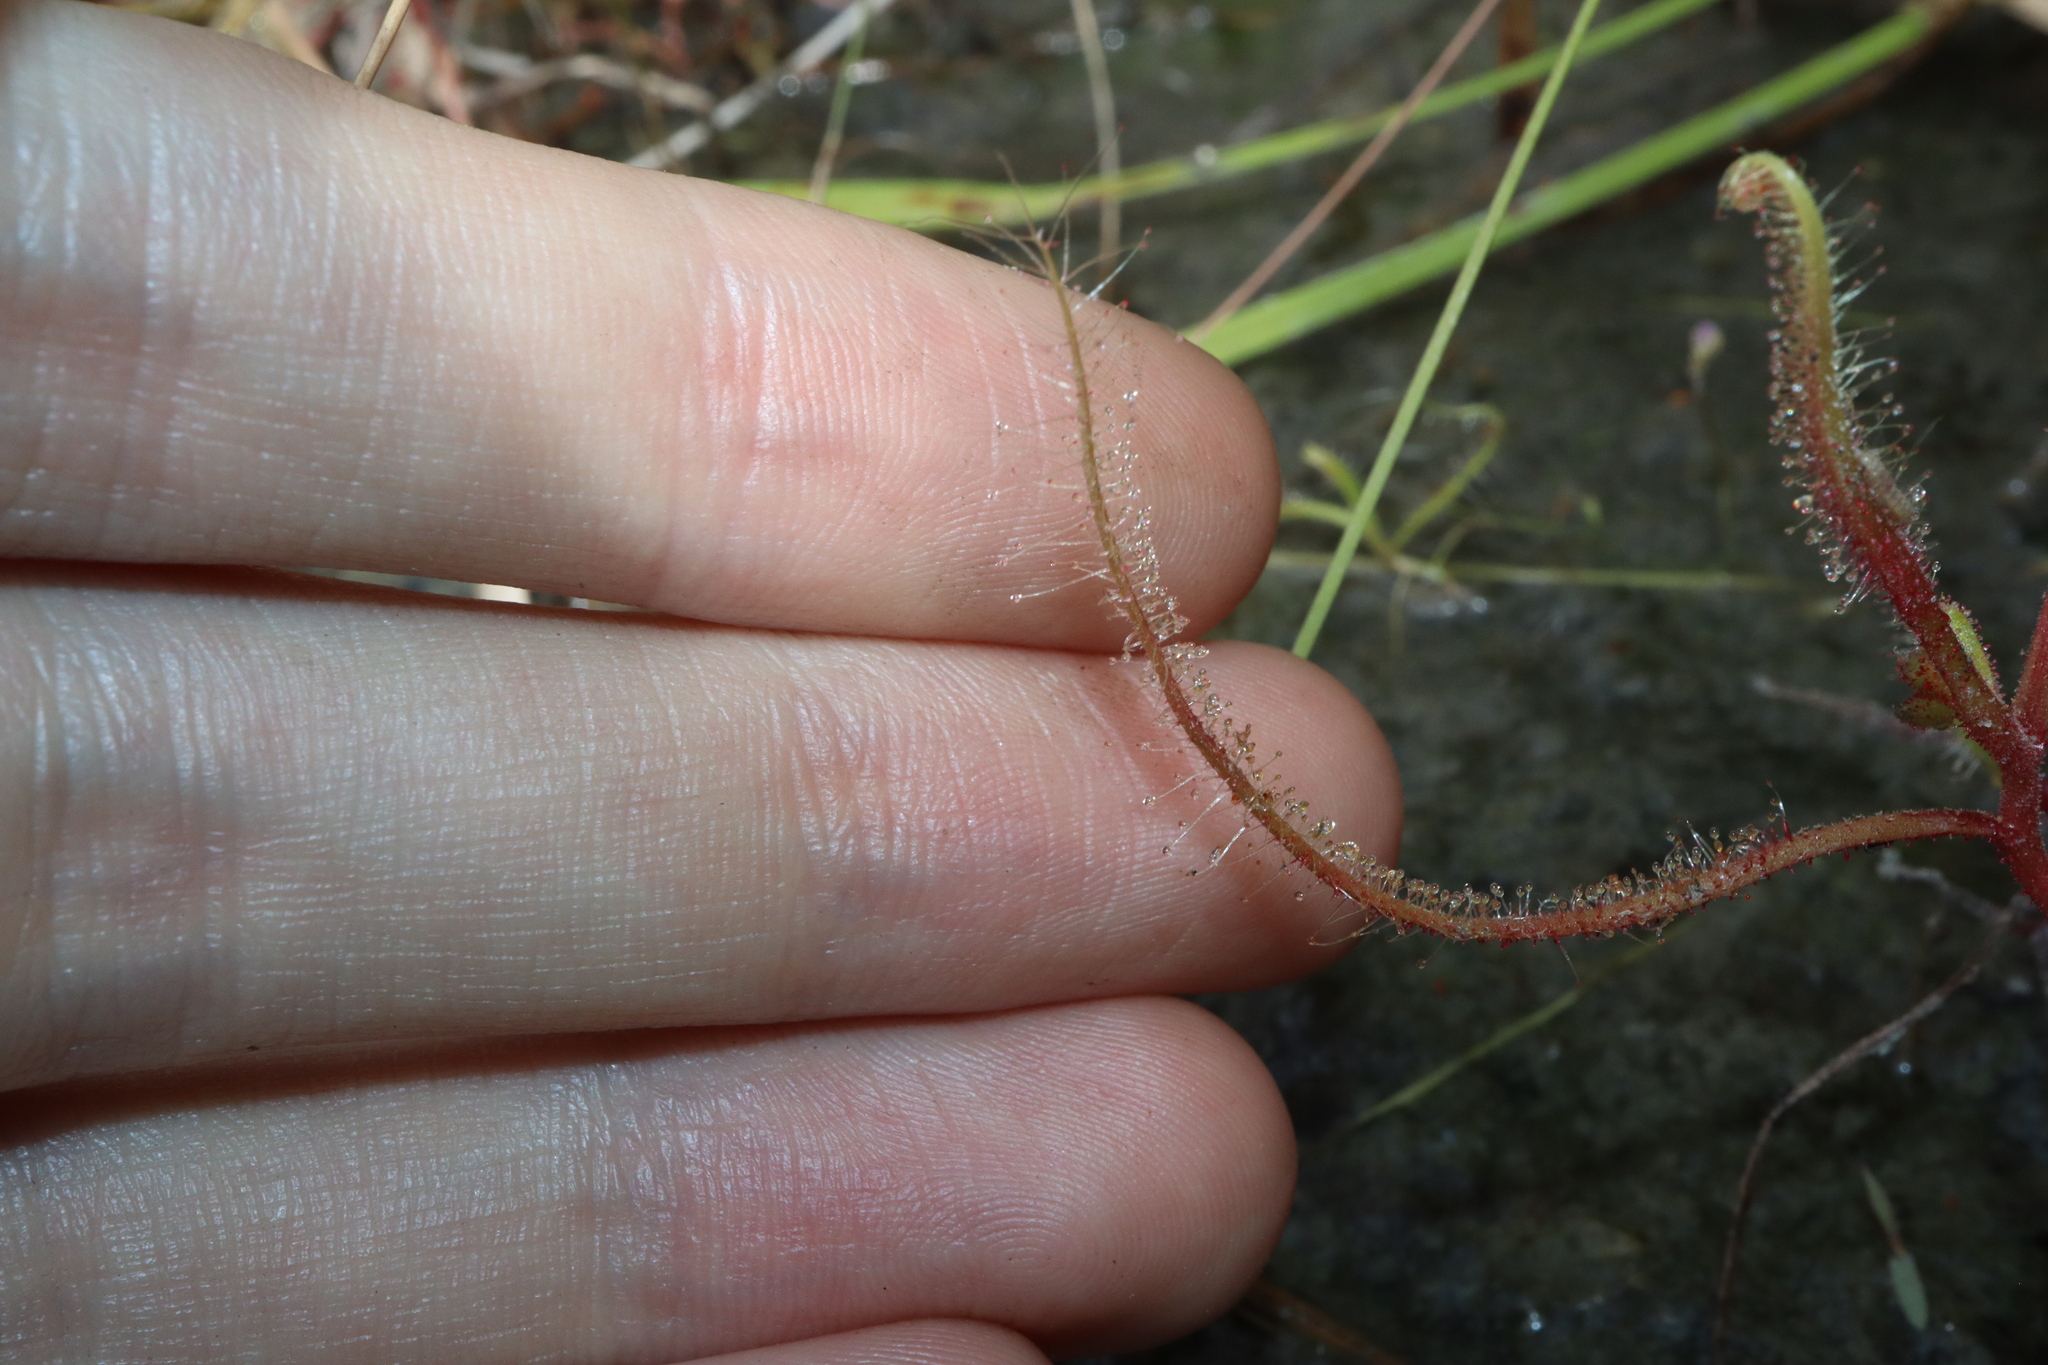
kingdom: Plantae
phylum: Tracheophyta
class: Magnoliopsida
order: Caryophyllales
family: Droseraceae
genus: Drosera
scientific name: Drosera indica
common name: Indian sundew
